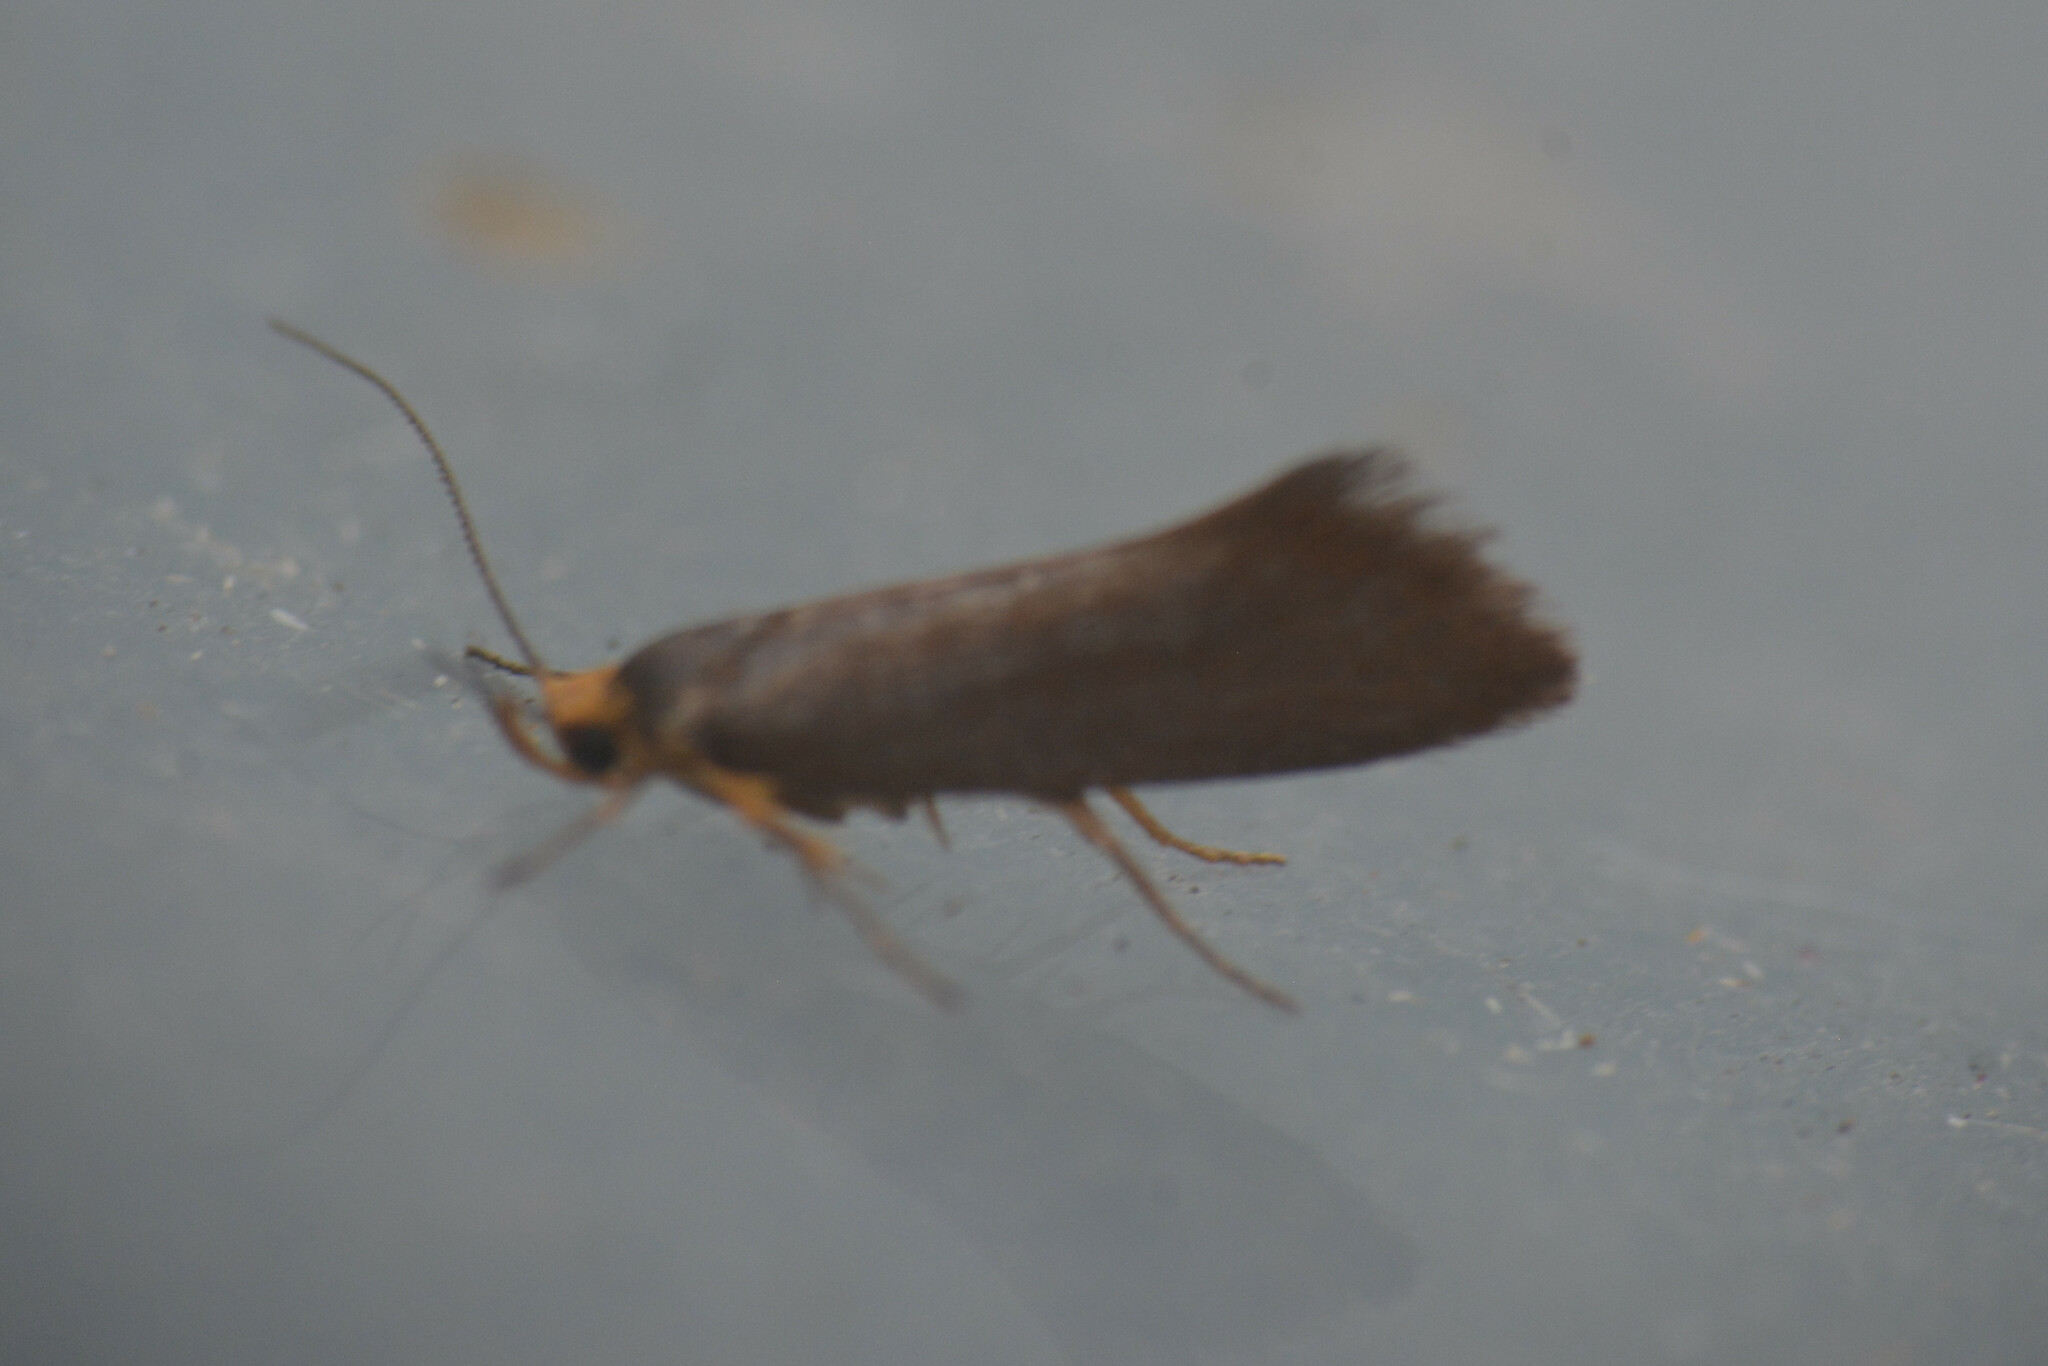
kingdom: Animalia
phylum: Arthropoda
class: Insecta
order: Lepidoptera
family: Oecophoridae
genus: Borkhausenia
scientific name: Borkhausenia Crassa unitella
